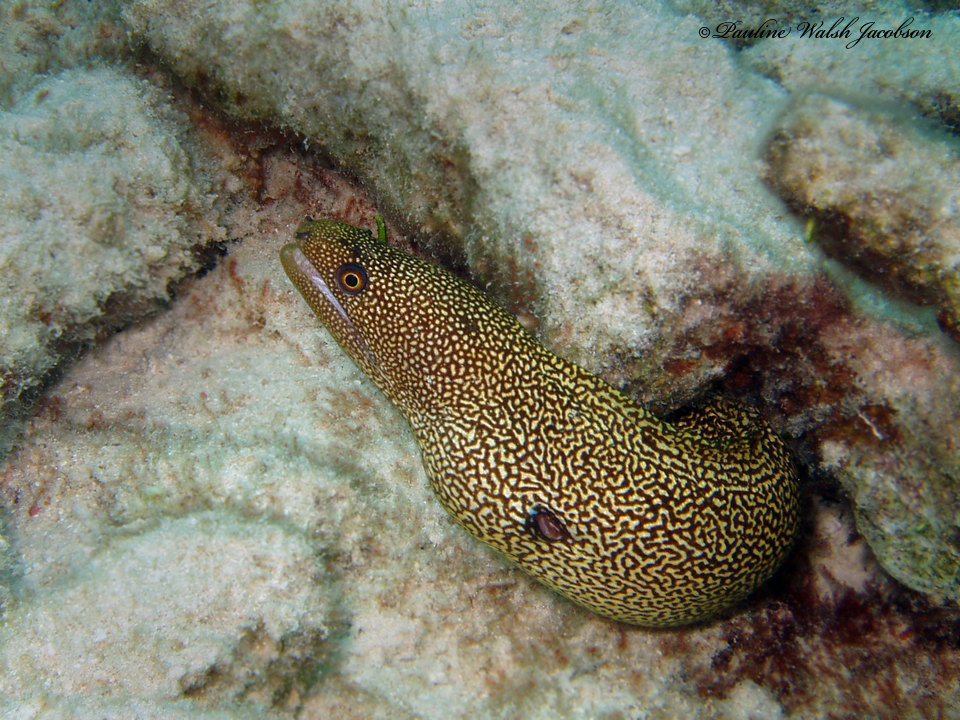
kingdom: Animalia
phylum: Chordata
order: Anguilliformes
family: Muraenidae
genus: Gymnothorax
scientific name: Gymnothorax miliaris
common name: Goldentail moray
